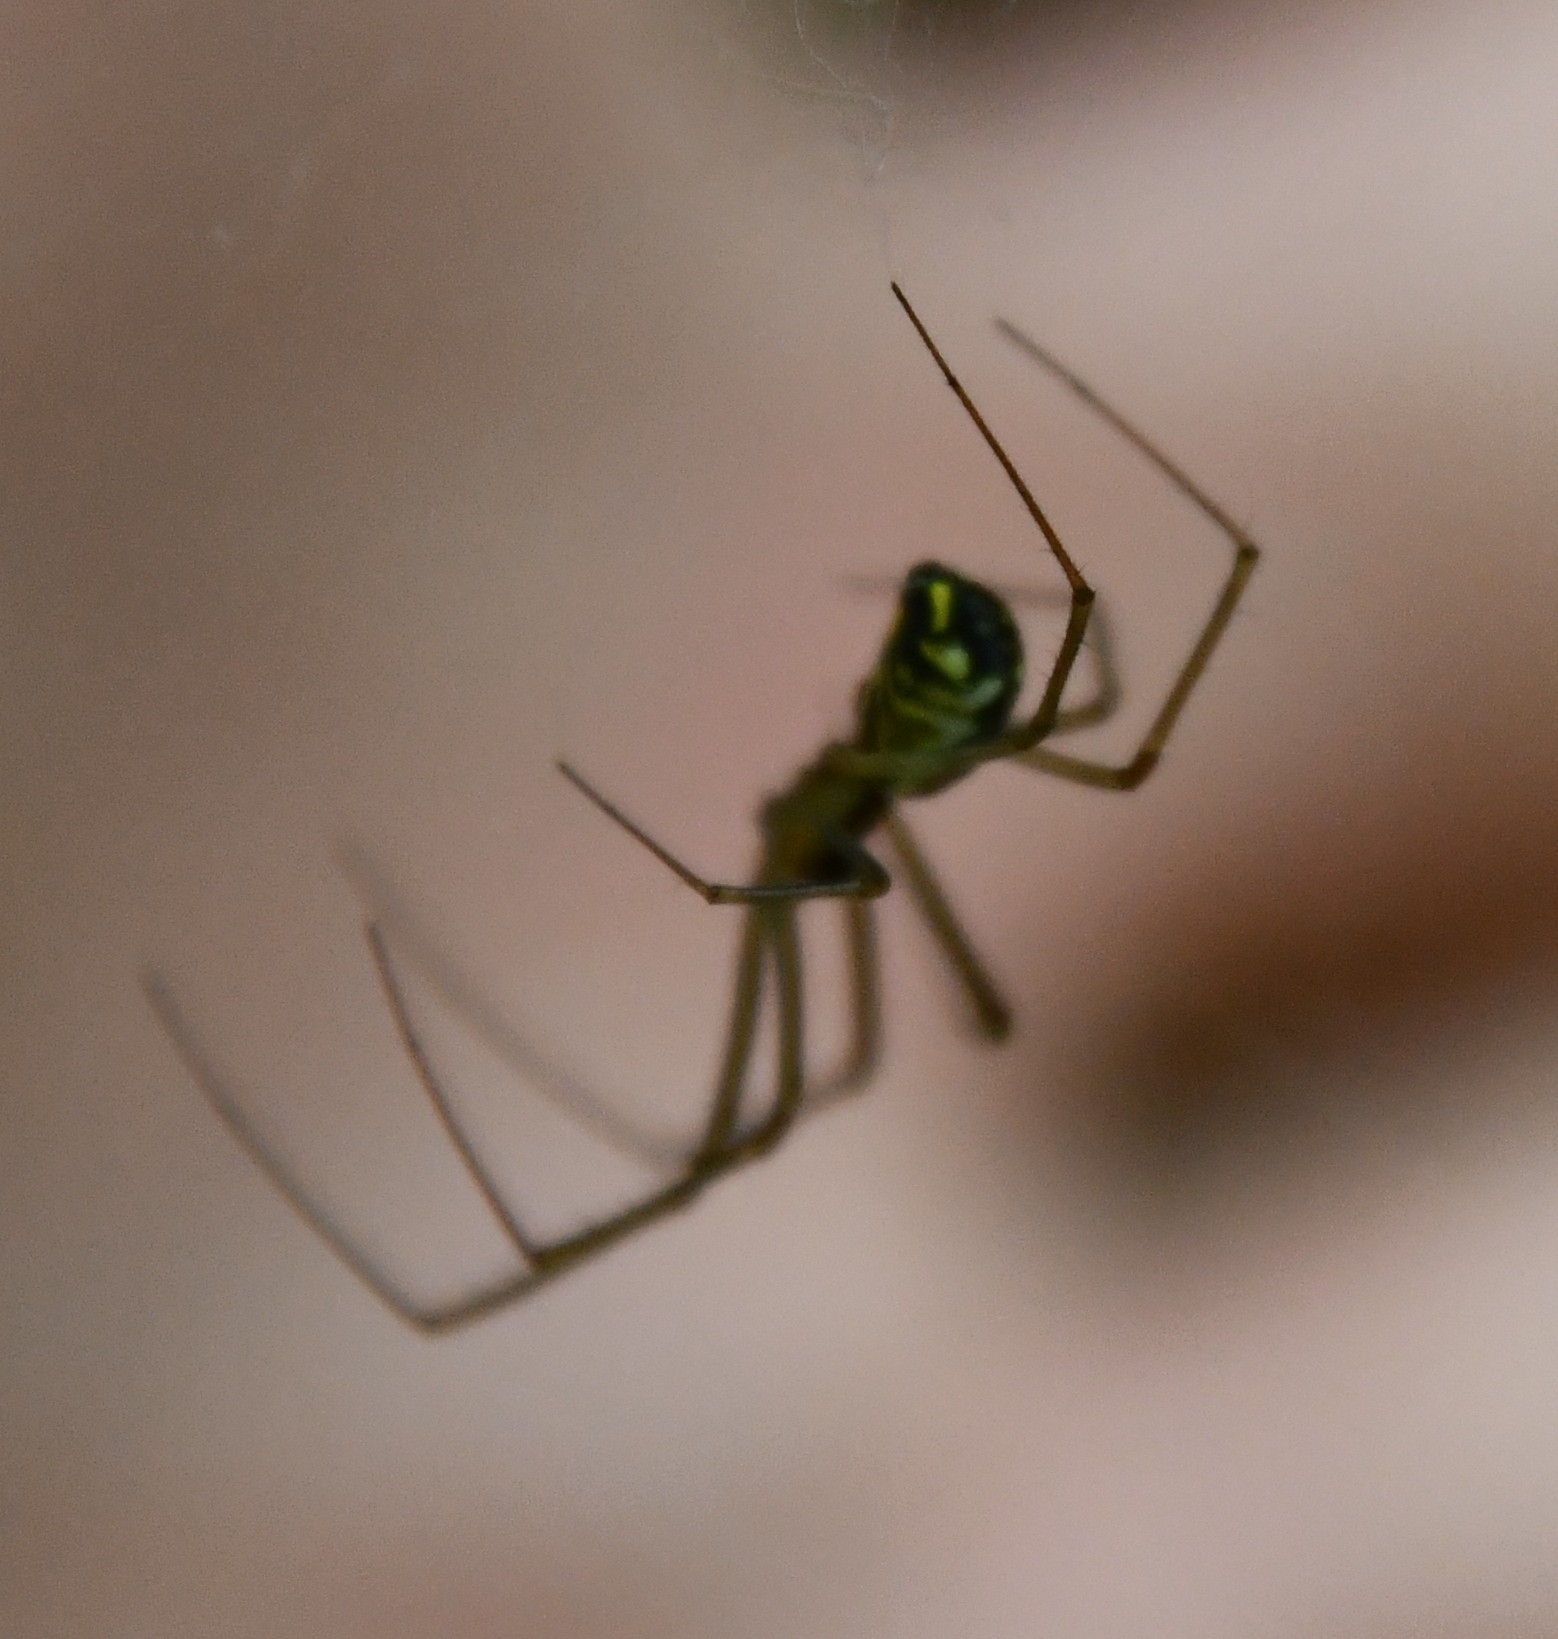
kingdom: Animalia
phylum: Arthropoda
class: Arachnida
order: Araneae
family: Linyphiidae
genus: Neriene
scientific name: Neriene radiata
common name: Filmy dome spider
